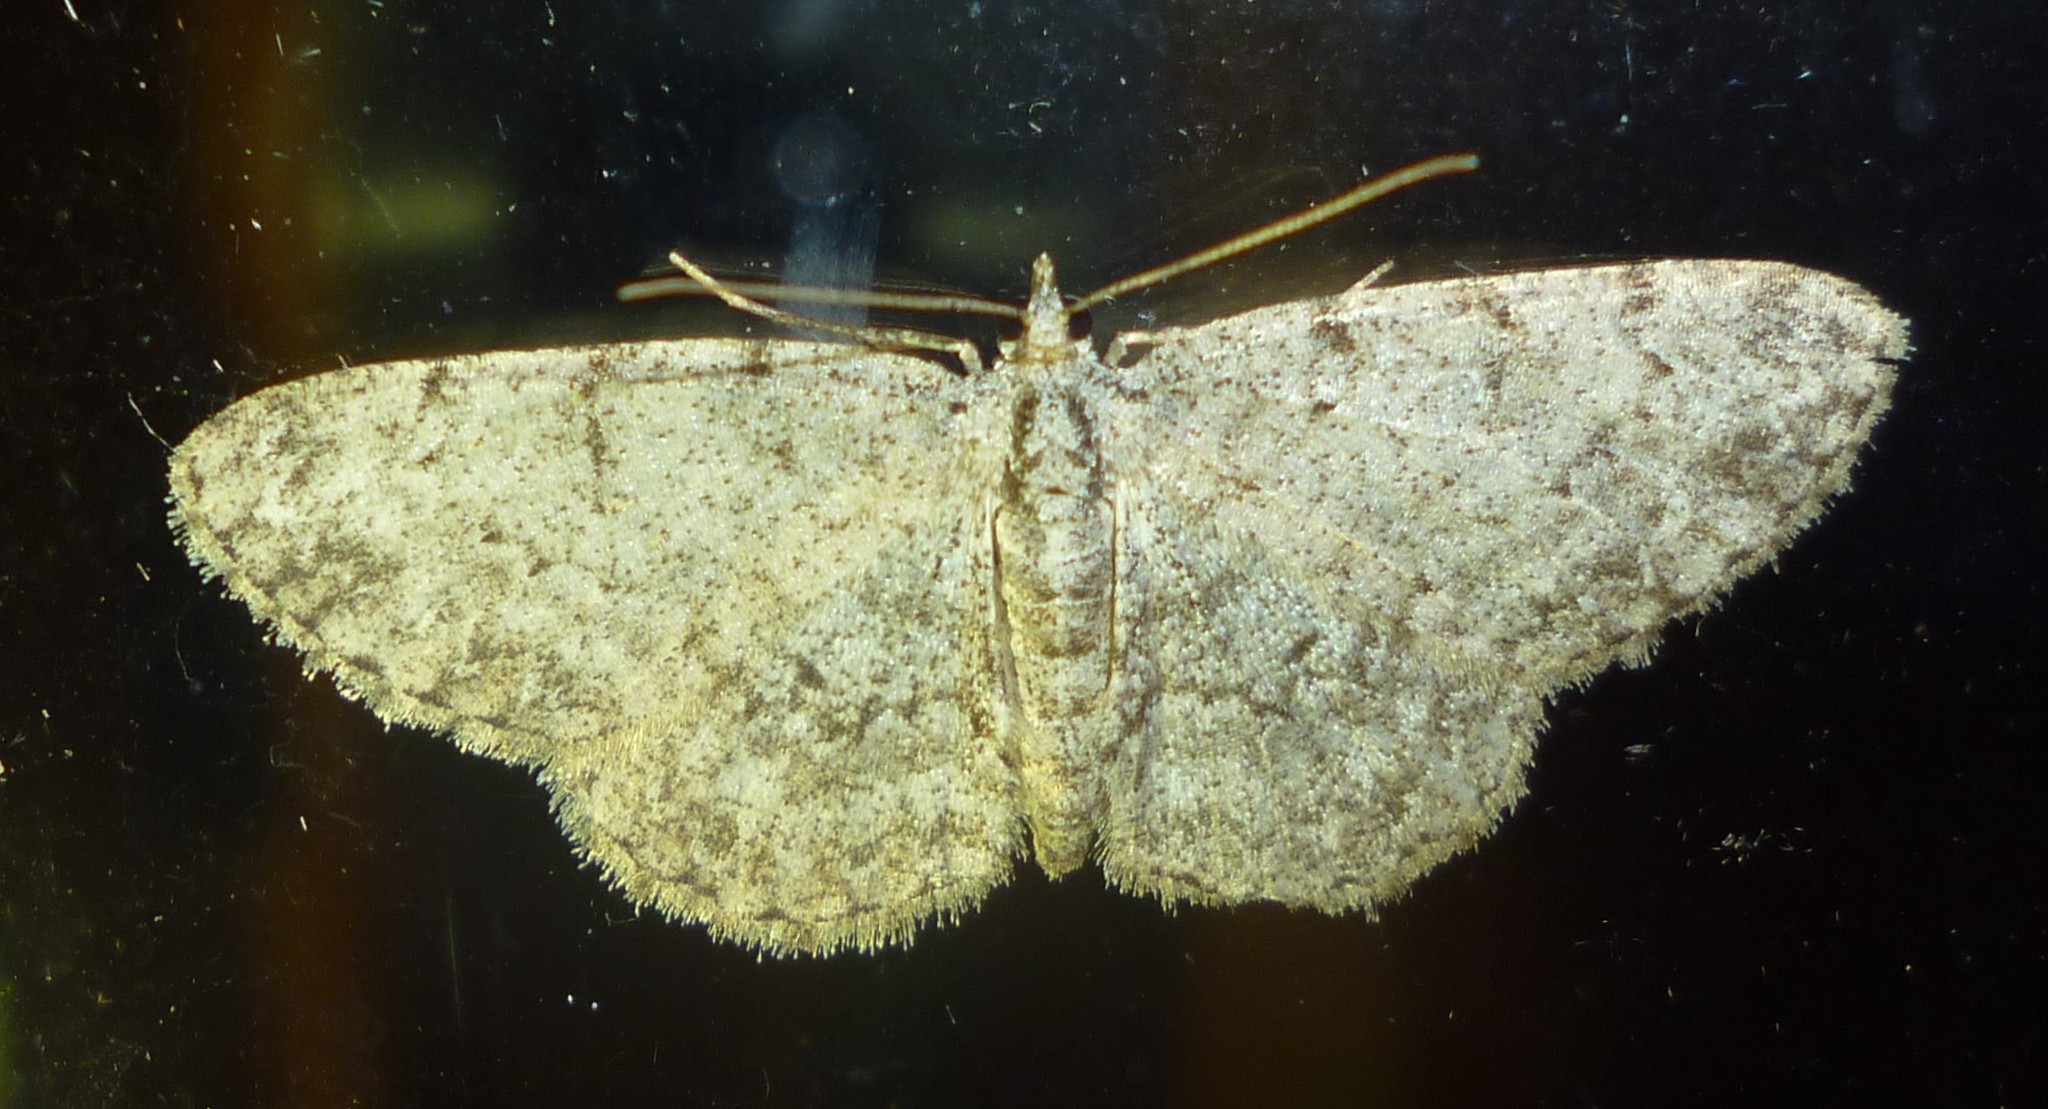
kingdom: Animalia
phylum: Arthropoda
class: Insecta
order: Lepidoptera
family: Geometridae
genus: Protoboarmia
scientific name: Protoboarmia porcelaria
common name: Porcelain gray
